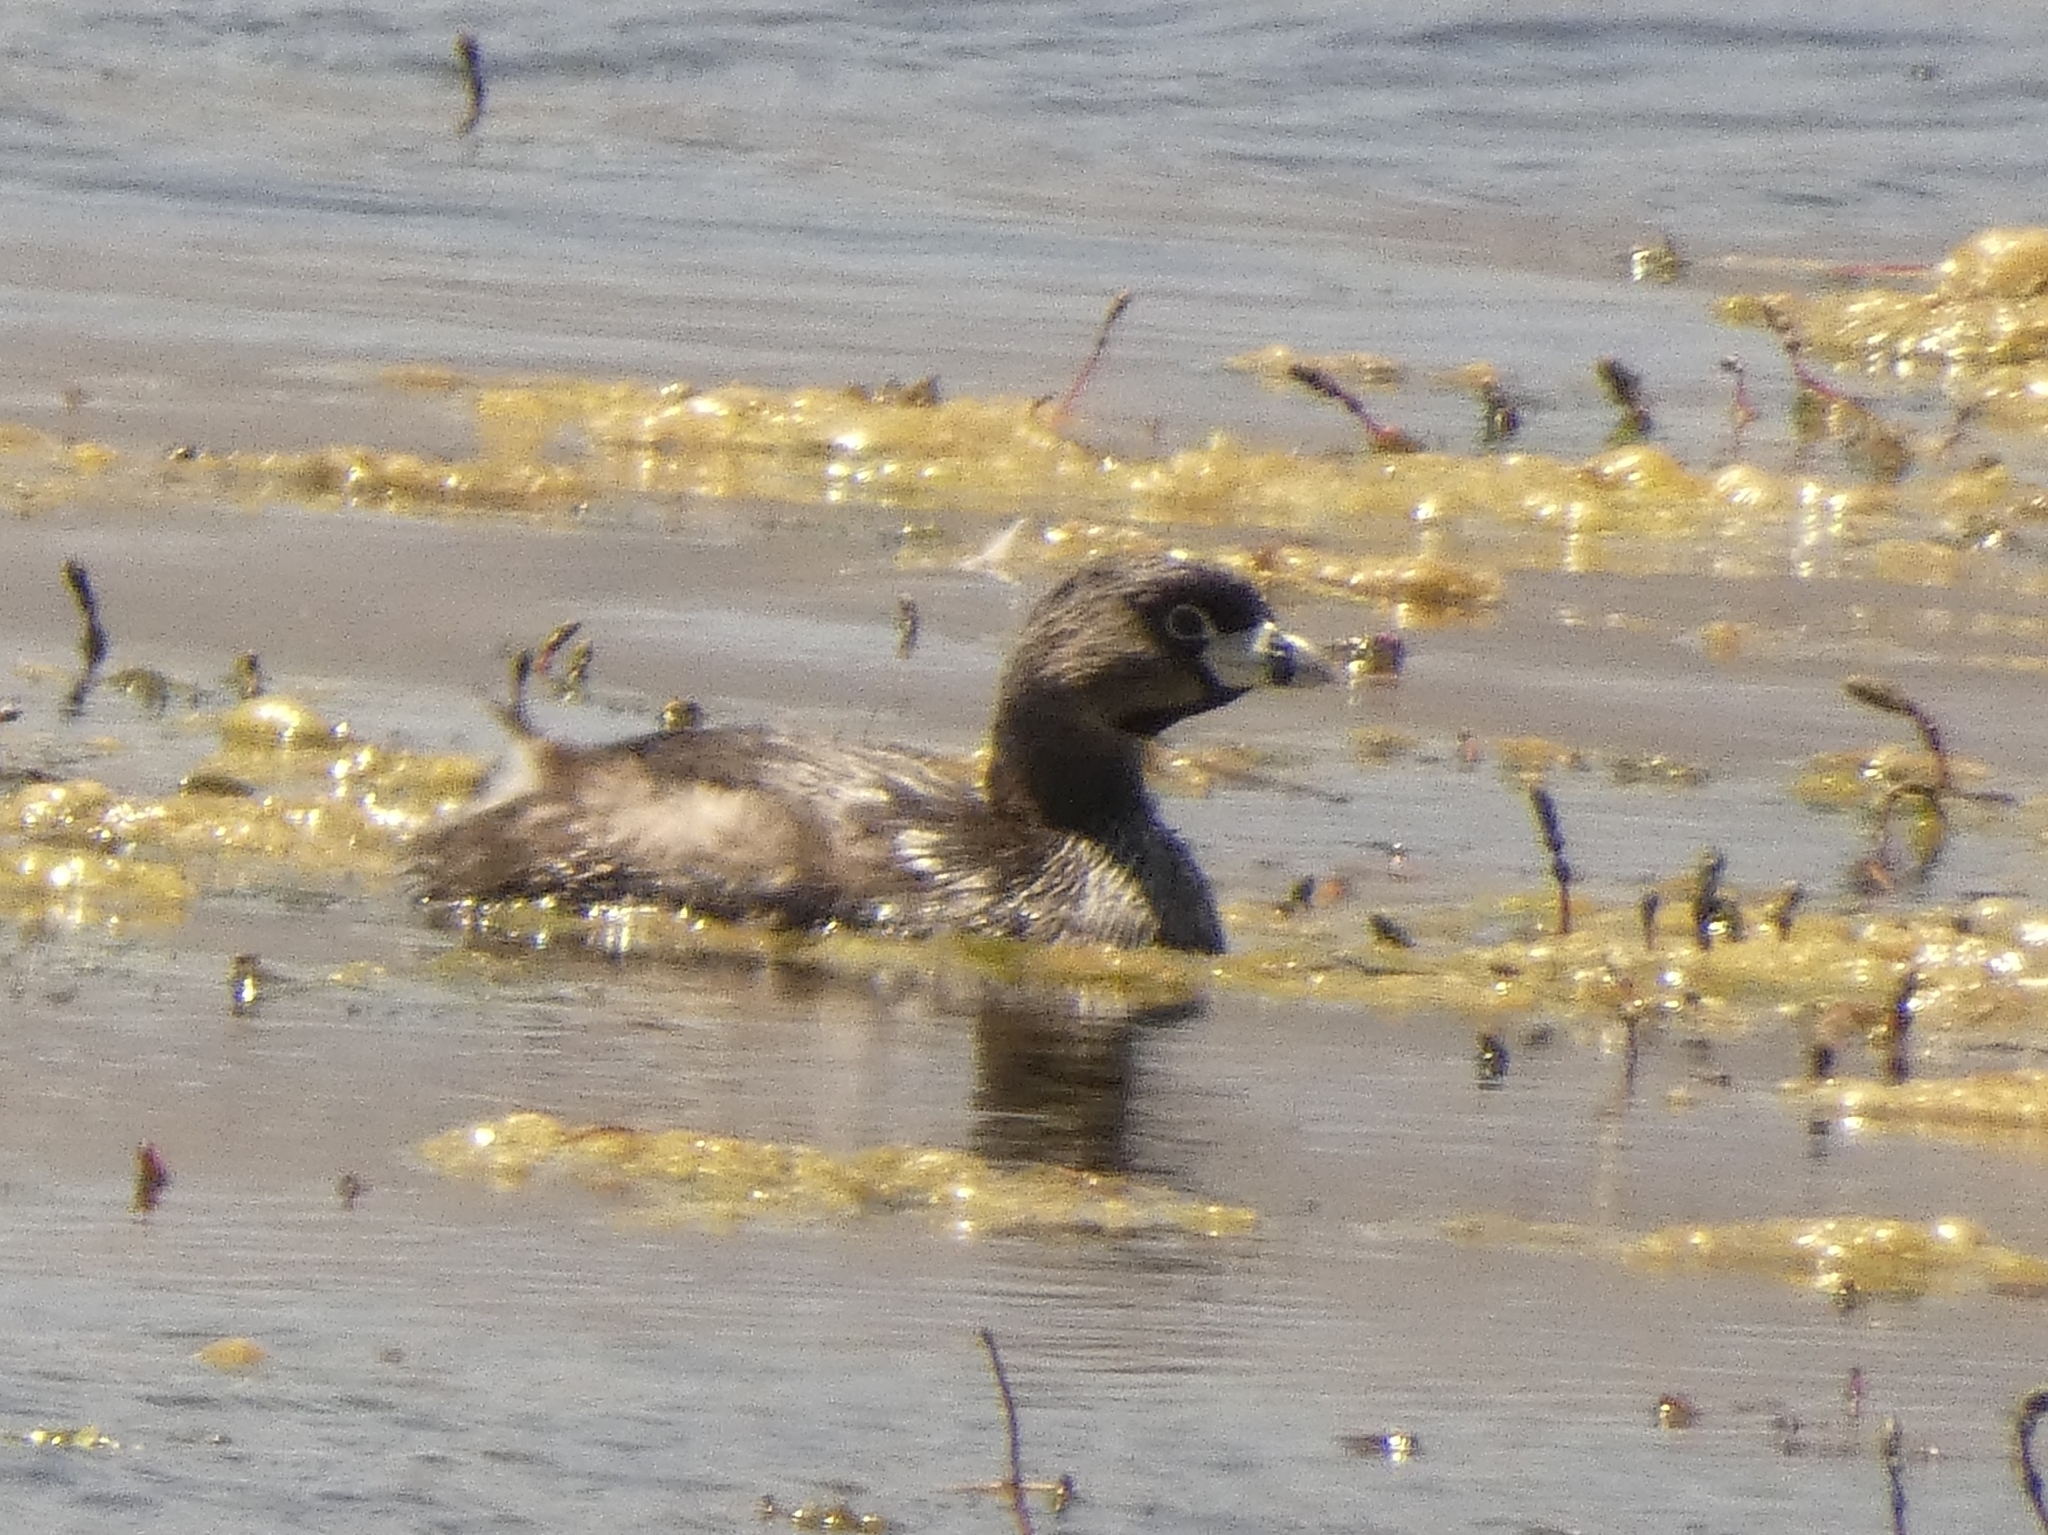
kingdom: Animalia
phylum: Chordata
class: Aves
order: Podicipediformes
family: Podicipedidae
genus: Podilymbus
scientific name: Podilymbus podiceps
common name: Pied-billed grebe
